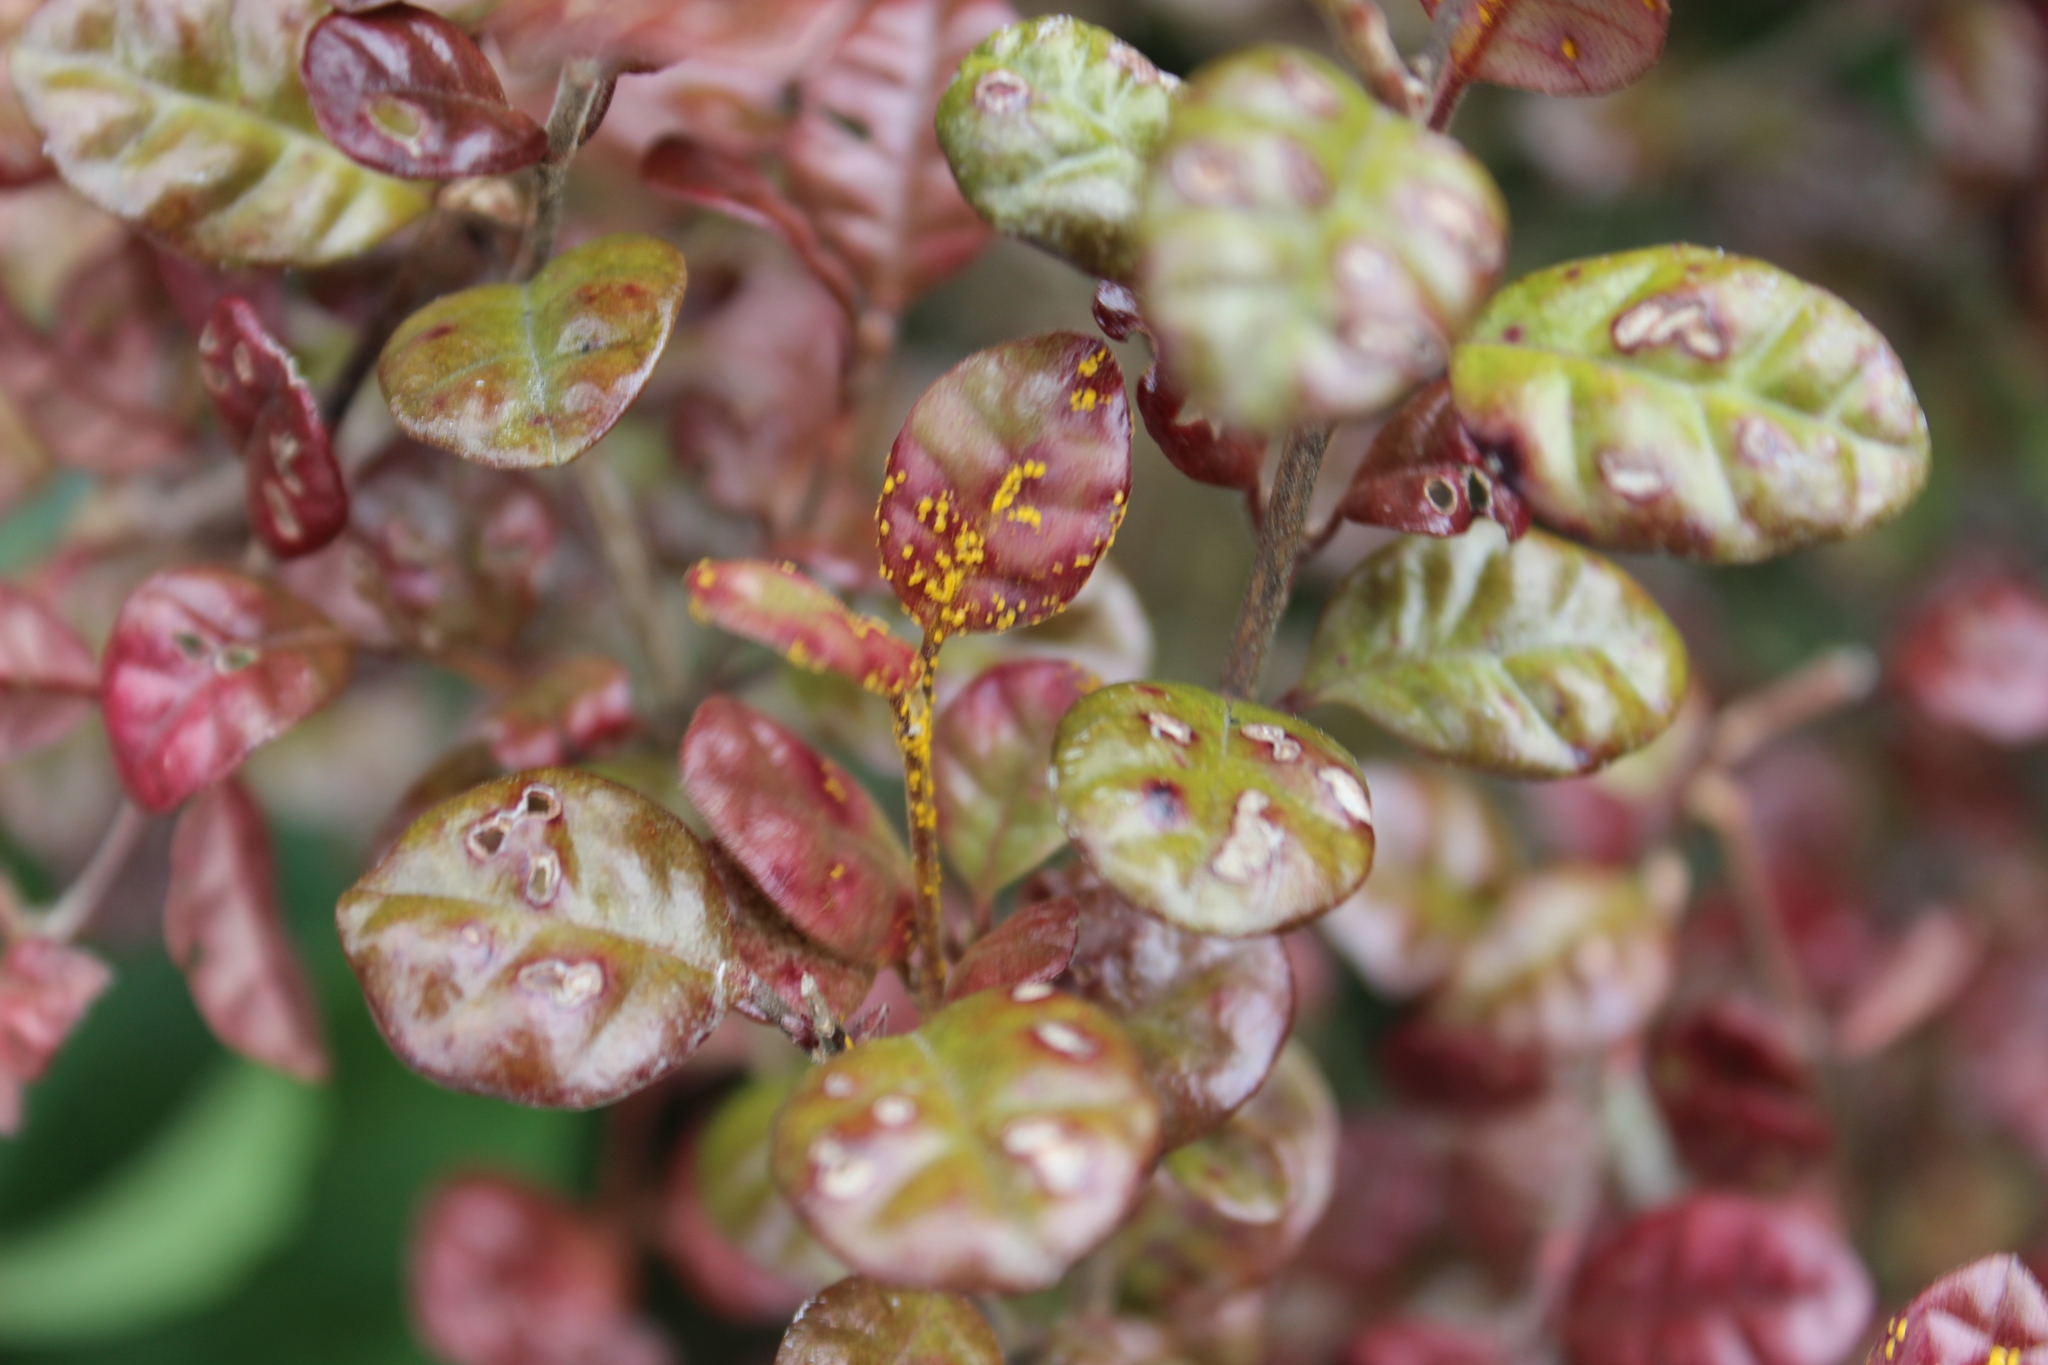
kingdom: Fungi
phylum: Basidiomycota
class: Pucciniomycetes
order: Pucciniales
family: Sphaerophragmiaceae
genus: Austropuccinia
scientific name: Austropuccinia psidii
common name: Myrtle rust
